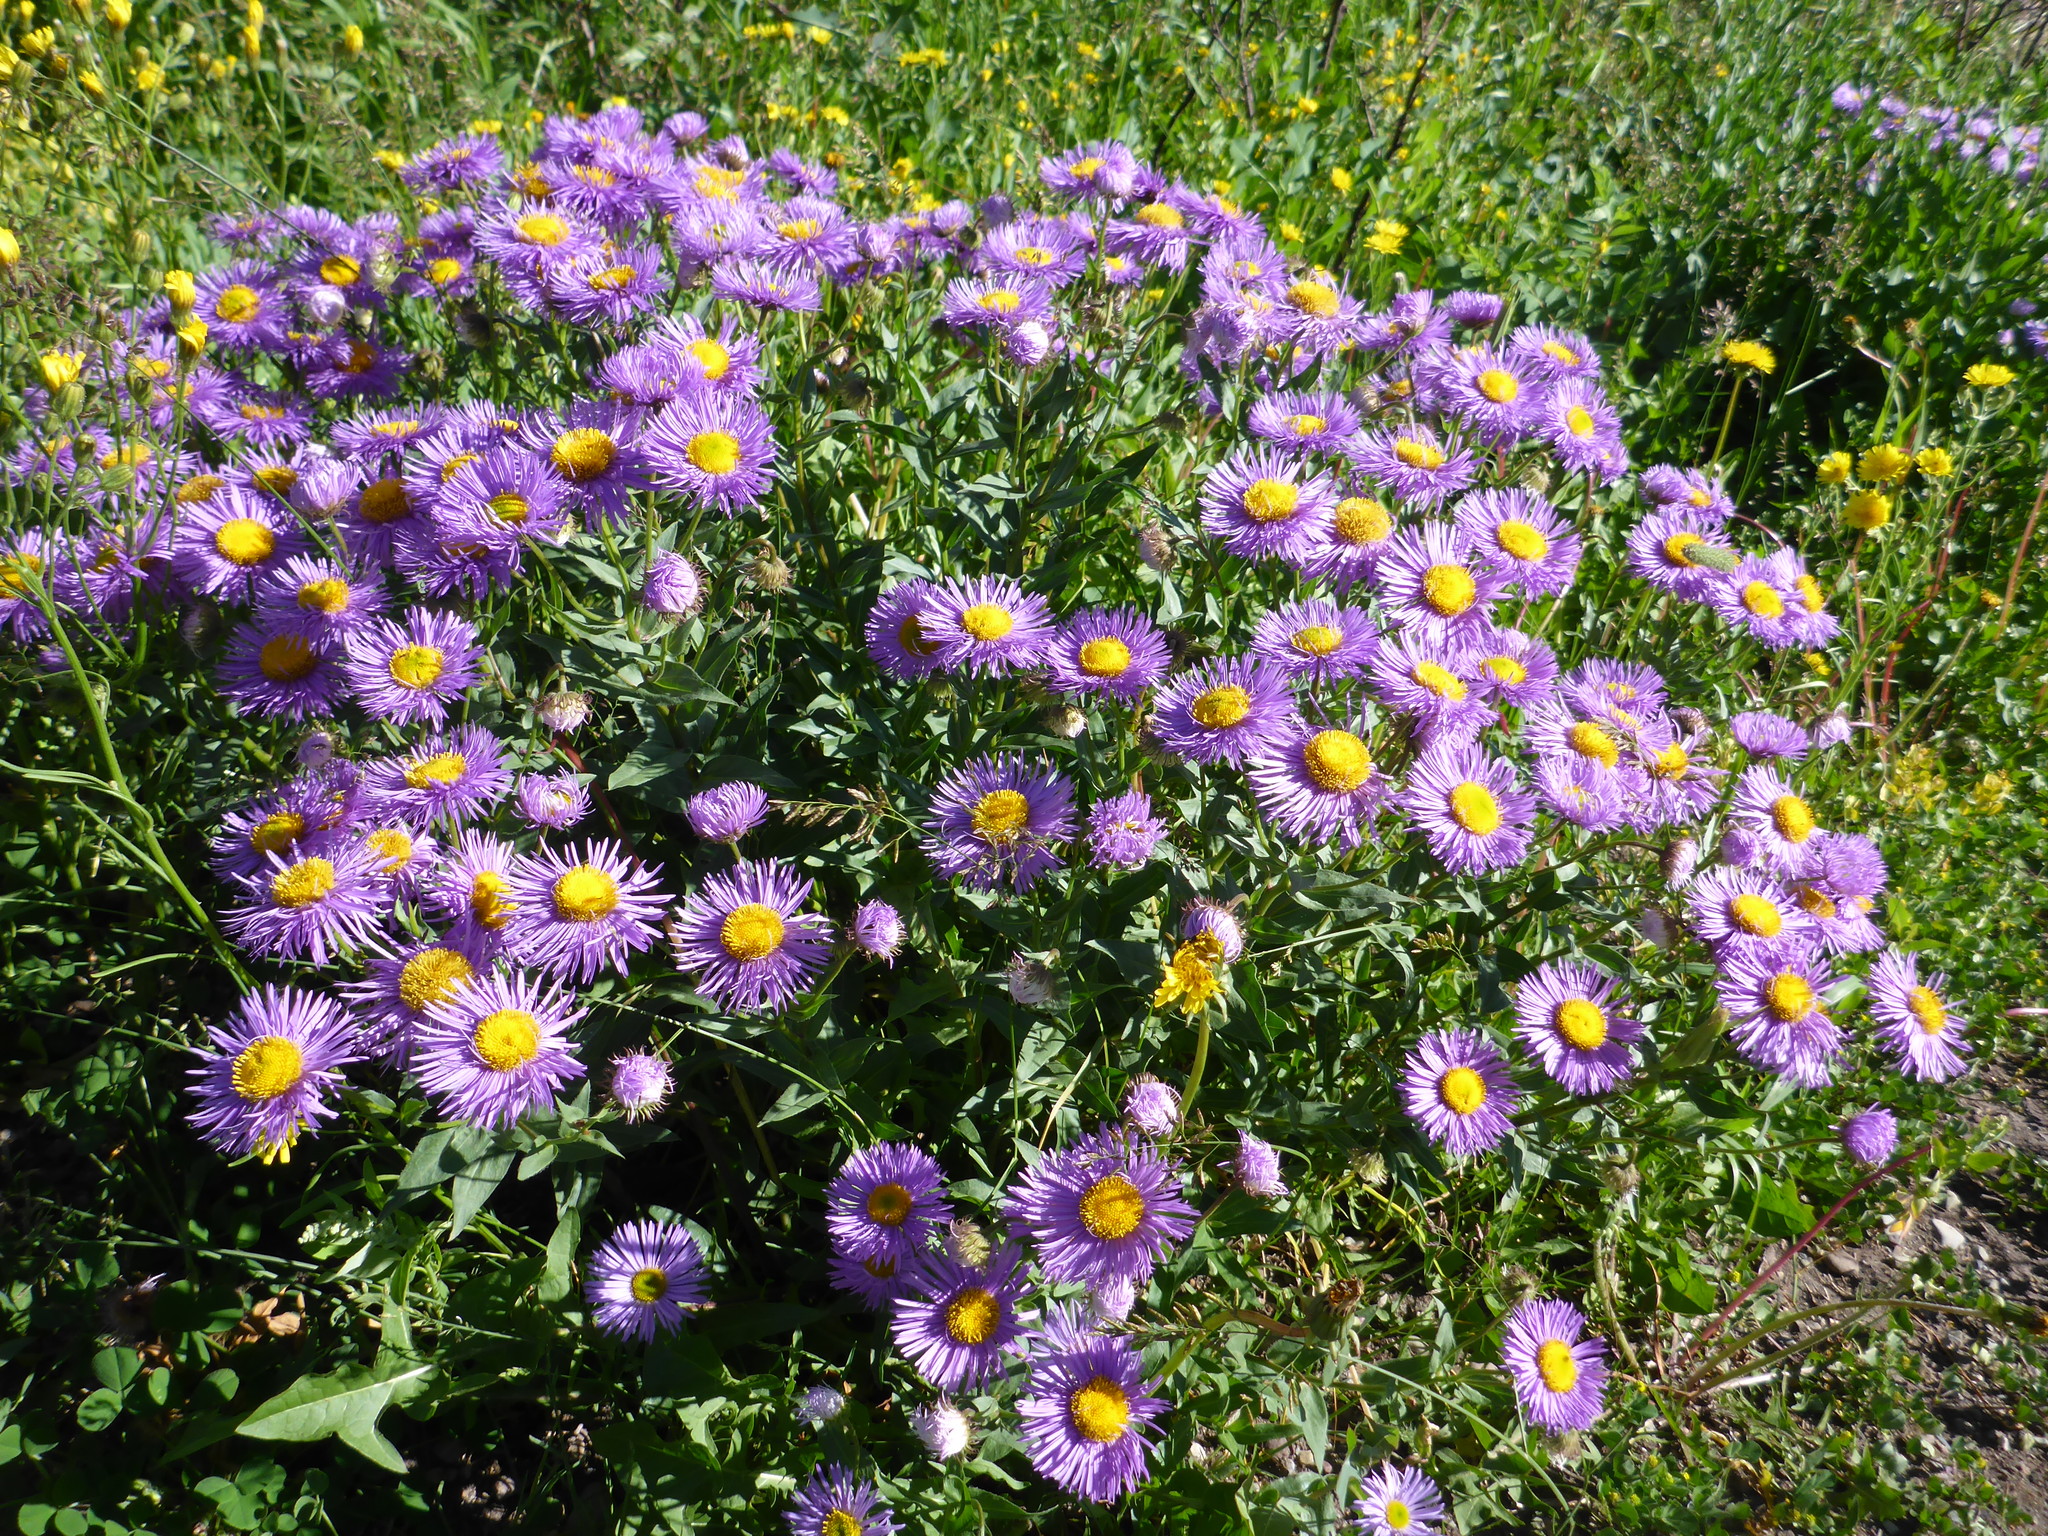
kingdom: Plantae
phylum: Tracheophyta
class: Magnoliopsida
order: Asterales
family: Asteraceae
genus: Erigeron
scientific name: Erigeron speciosus
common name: Aspen fleabane
